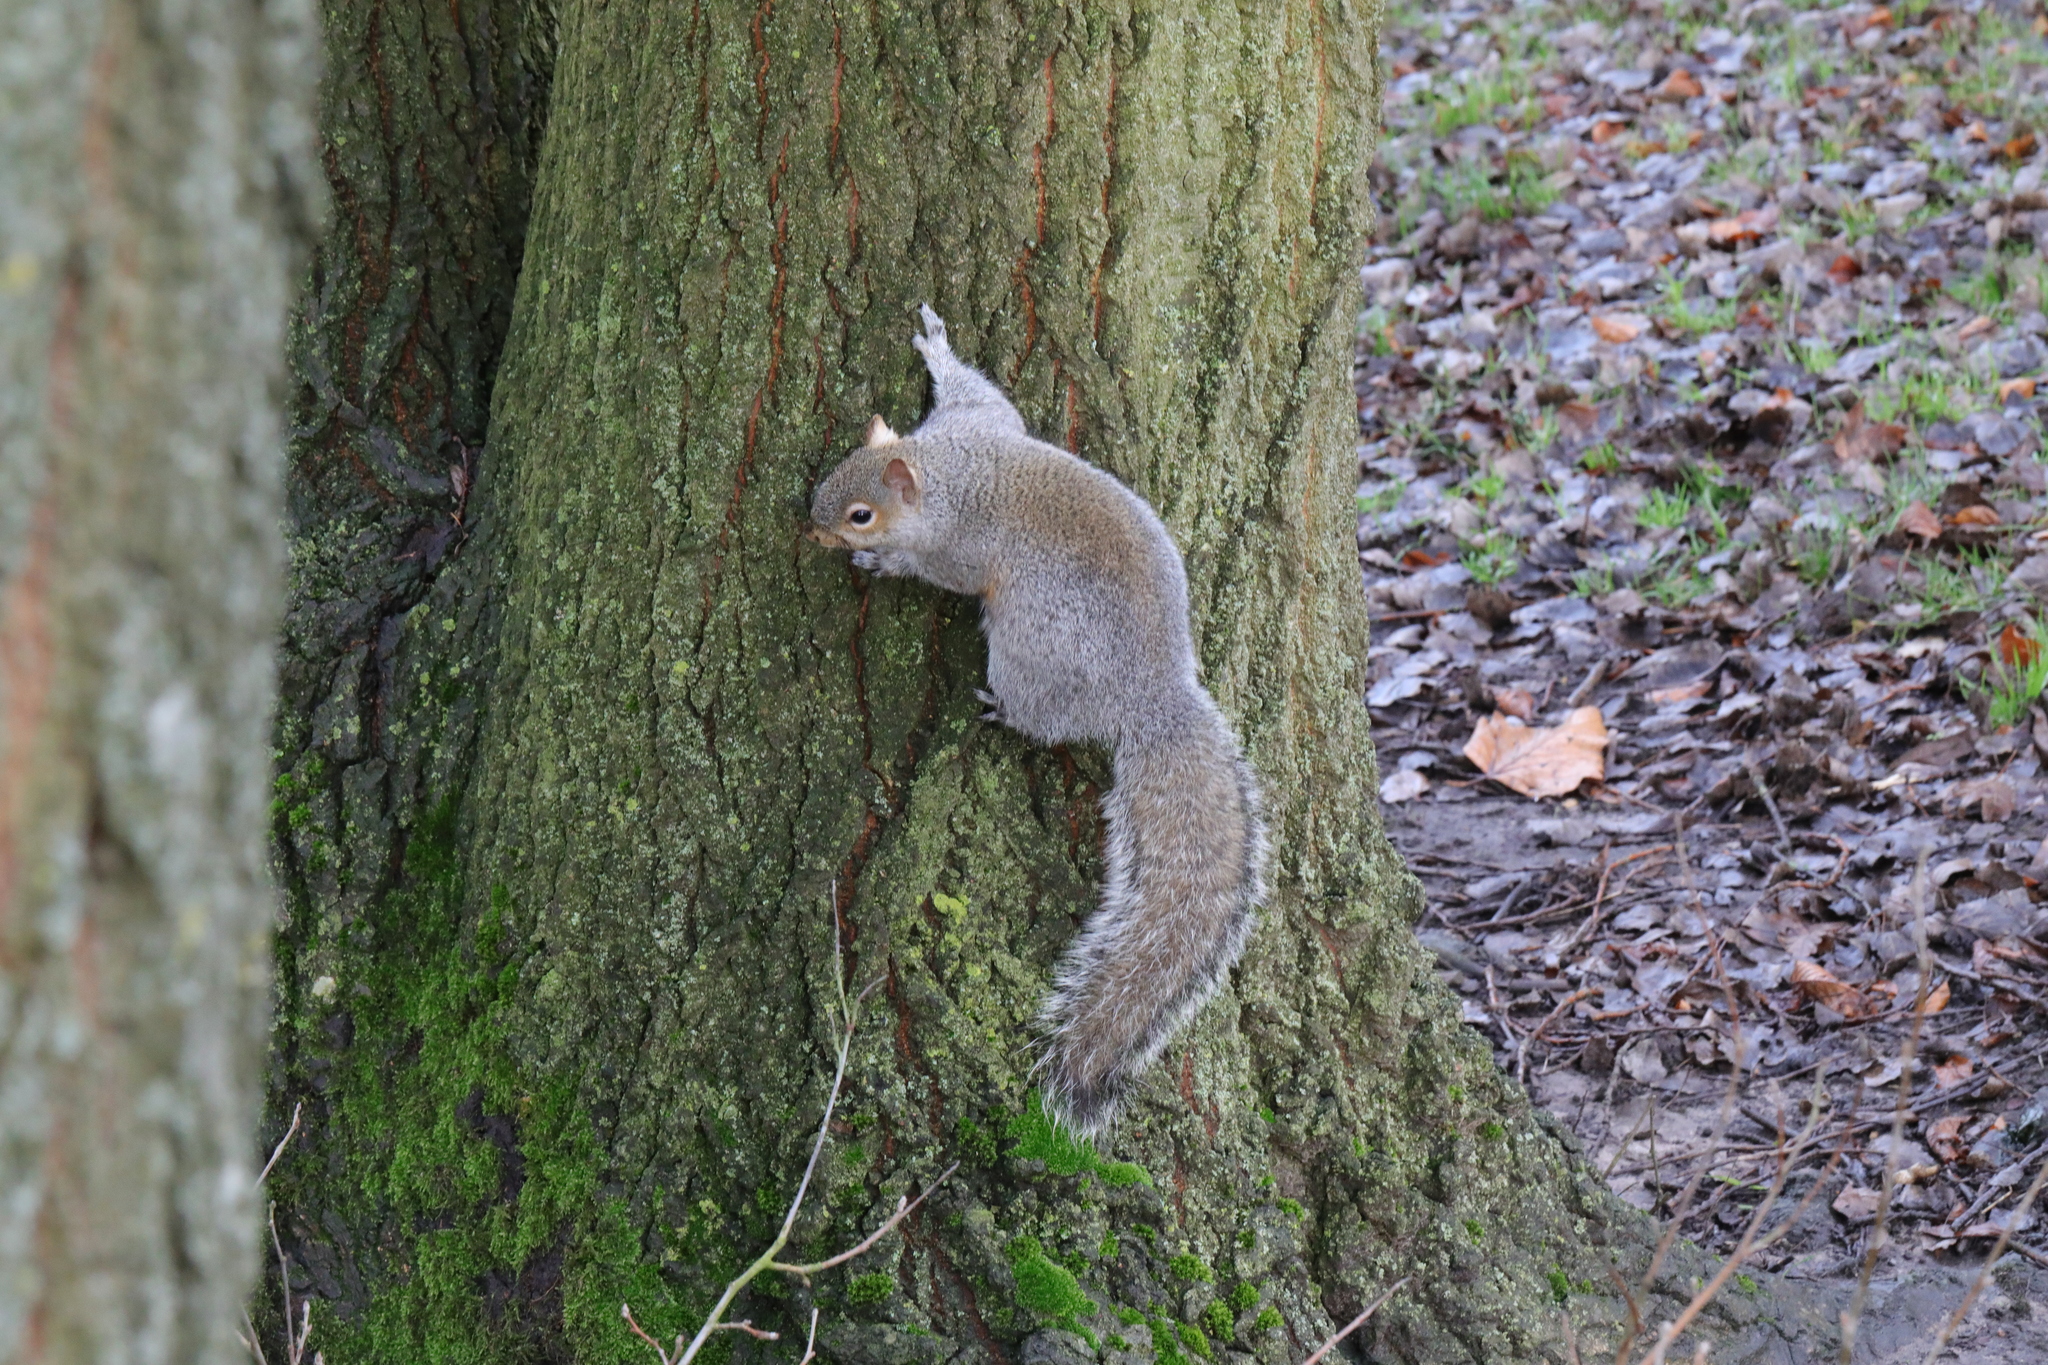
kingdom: Animalia
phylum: Chordata
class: Mammalia
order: Rodentia
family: Sciuridae
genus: Sciurus
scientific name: Sciurus carolinensis
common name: Eastern gray squirrel
